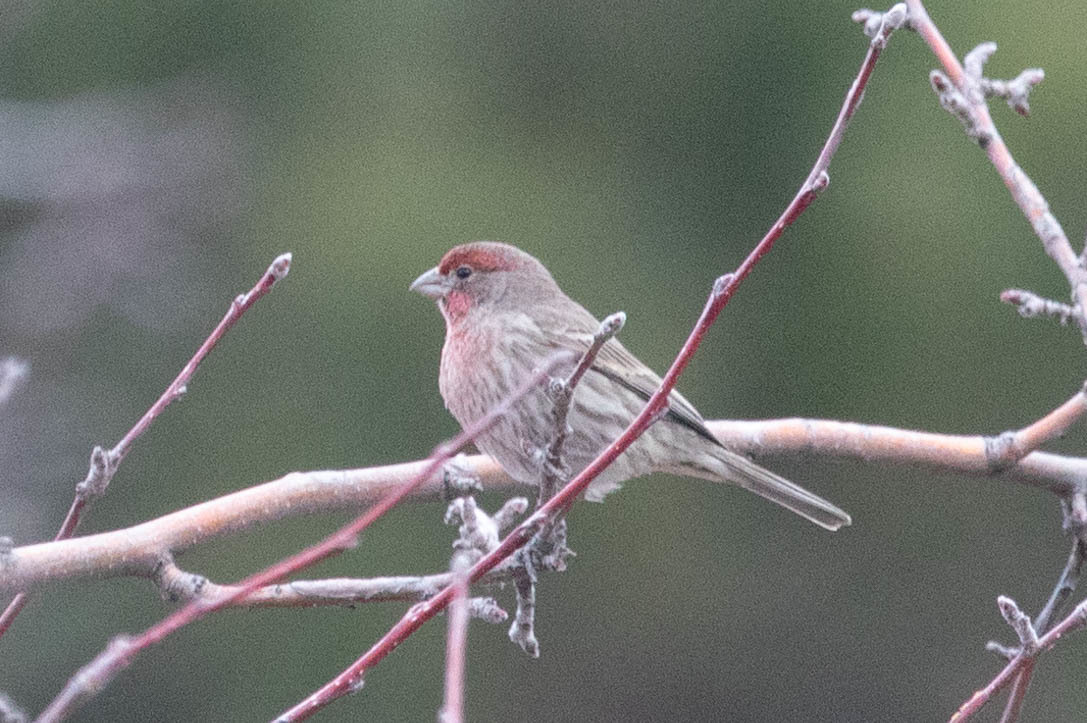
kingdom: Animalia
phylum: Chordata
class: Aves
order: Passeriformes
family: Fringillidae
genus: Haemorhous
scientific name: Haemorhous mexicanus
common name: House finch
